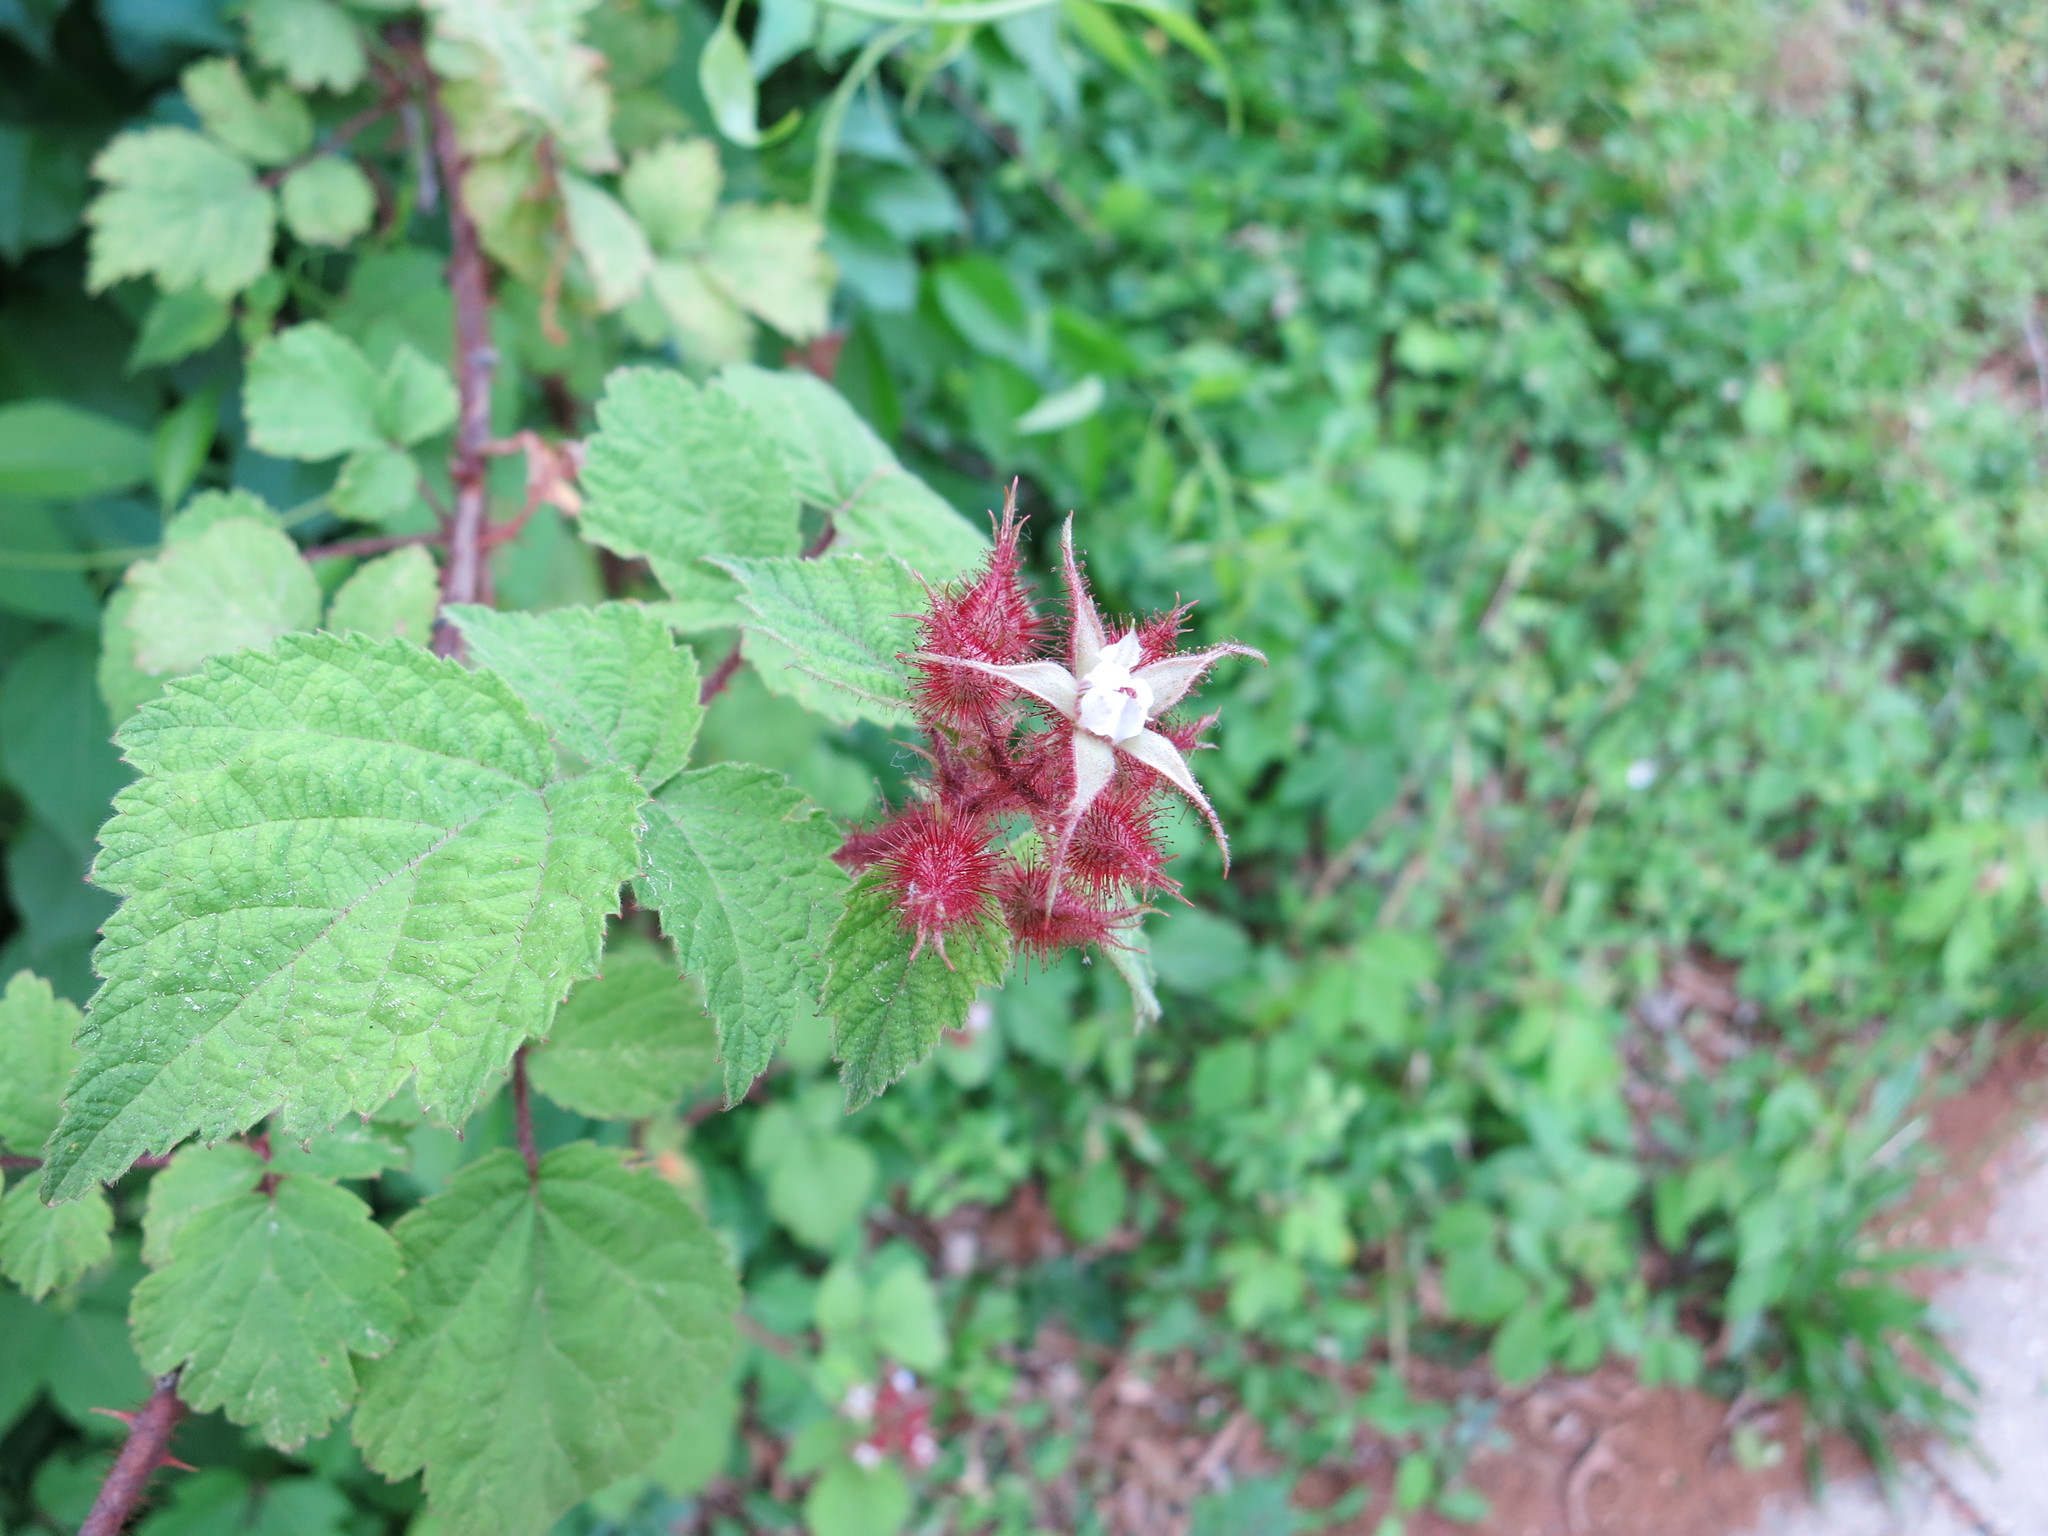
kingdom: Plantae
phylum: Tracheophyta
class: Magnoliopsida
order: Rosales
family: Rosaceae
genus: Rubus
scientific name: Rubus phoenicolasius
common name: Japanese wineberry
